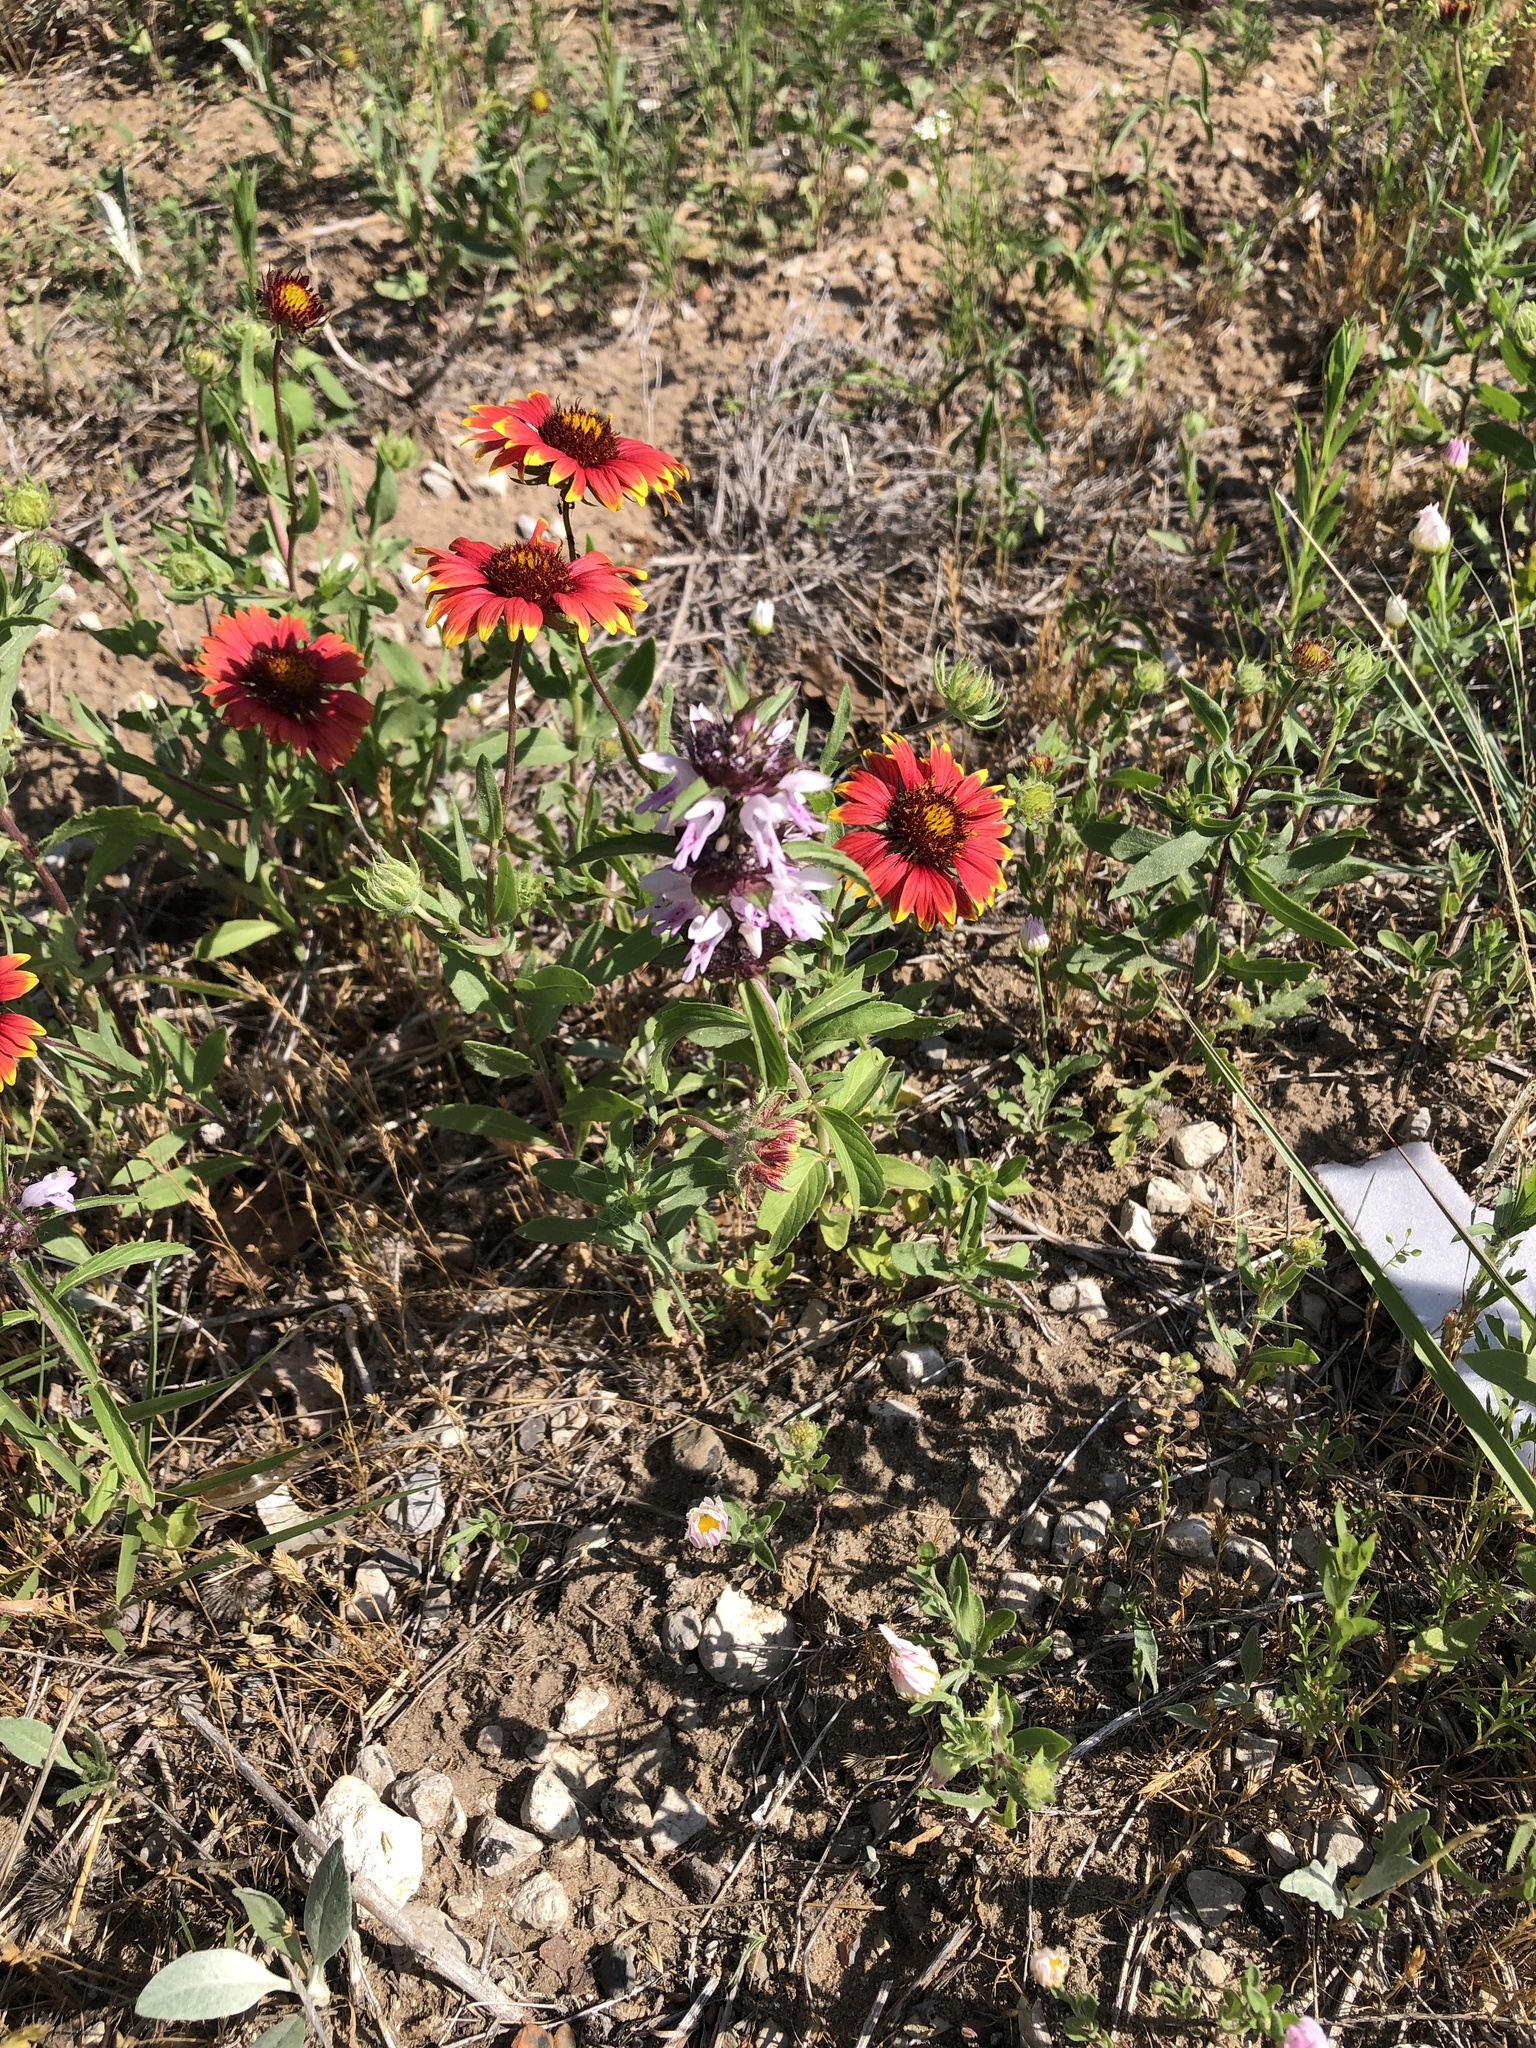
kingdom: Plantae
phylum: Tracheophyta
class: Magnoliopsida
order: Lamiales
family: Lamiaceae
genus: Monarda
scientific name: Monarda clinopodioides
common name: Basil beebalm
